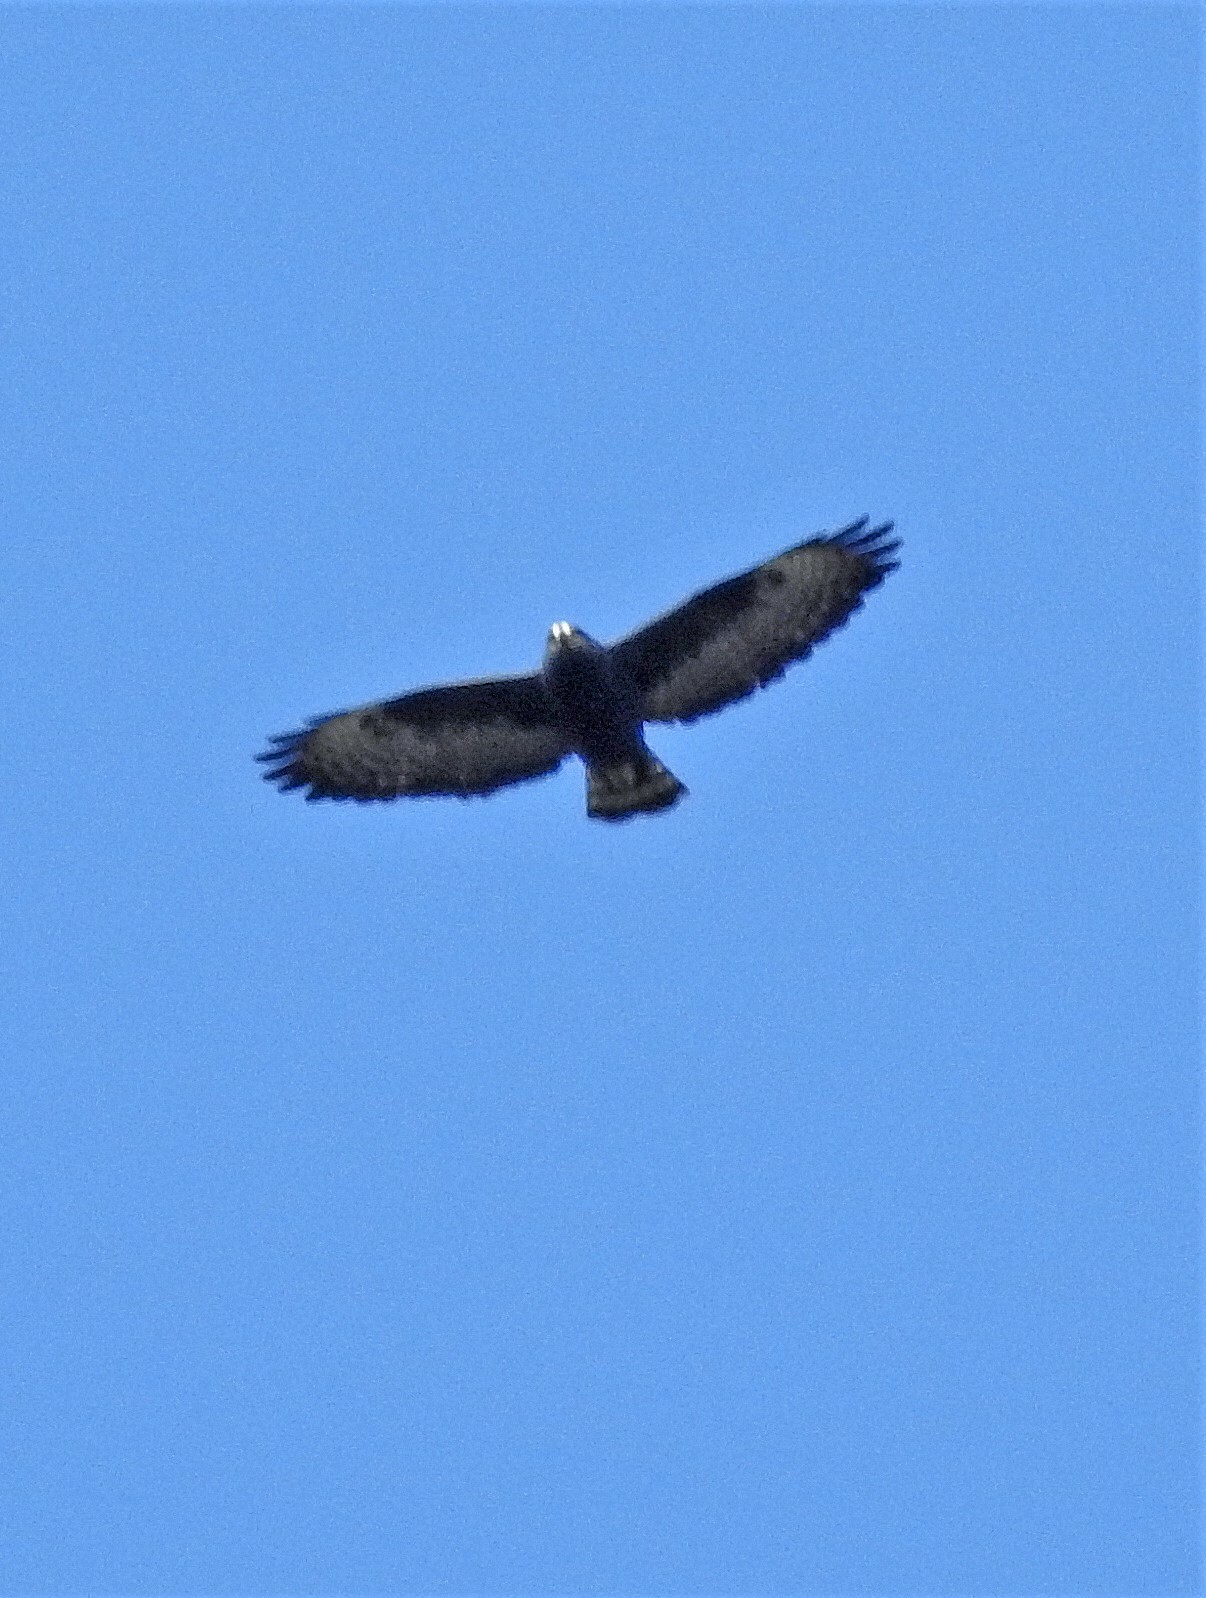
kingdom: Animalia
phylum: Chordata
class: Aves
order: Accipitriformes
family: Accipitridae
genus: Buteo
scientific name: Buteo brachyurus
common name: Short-tailed hawk
